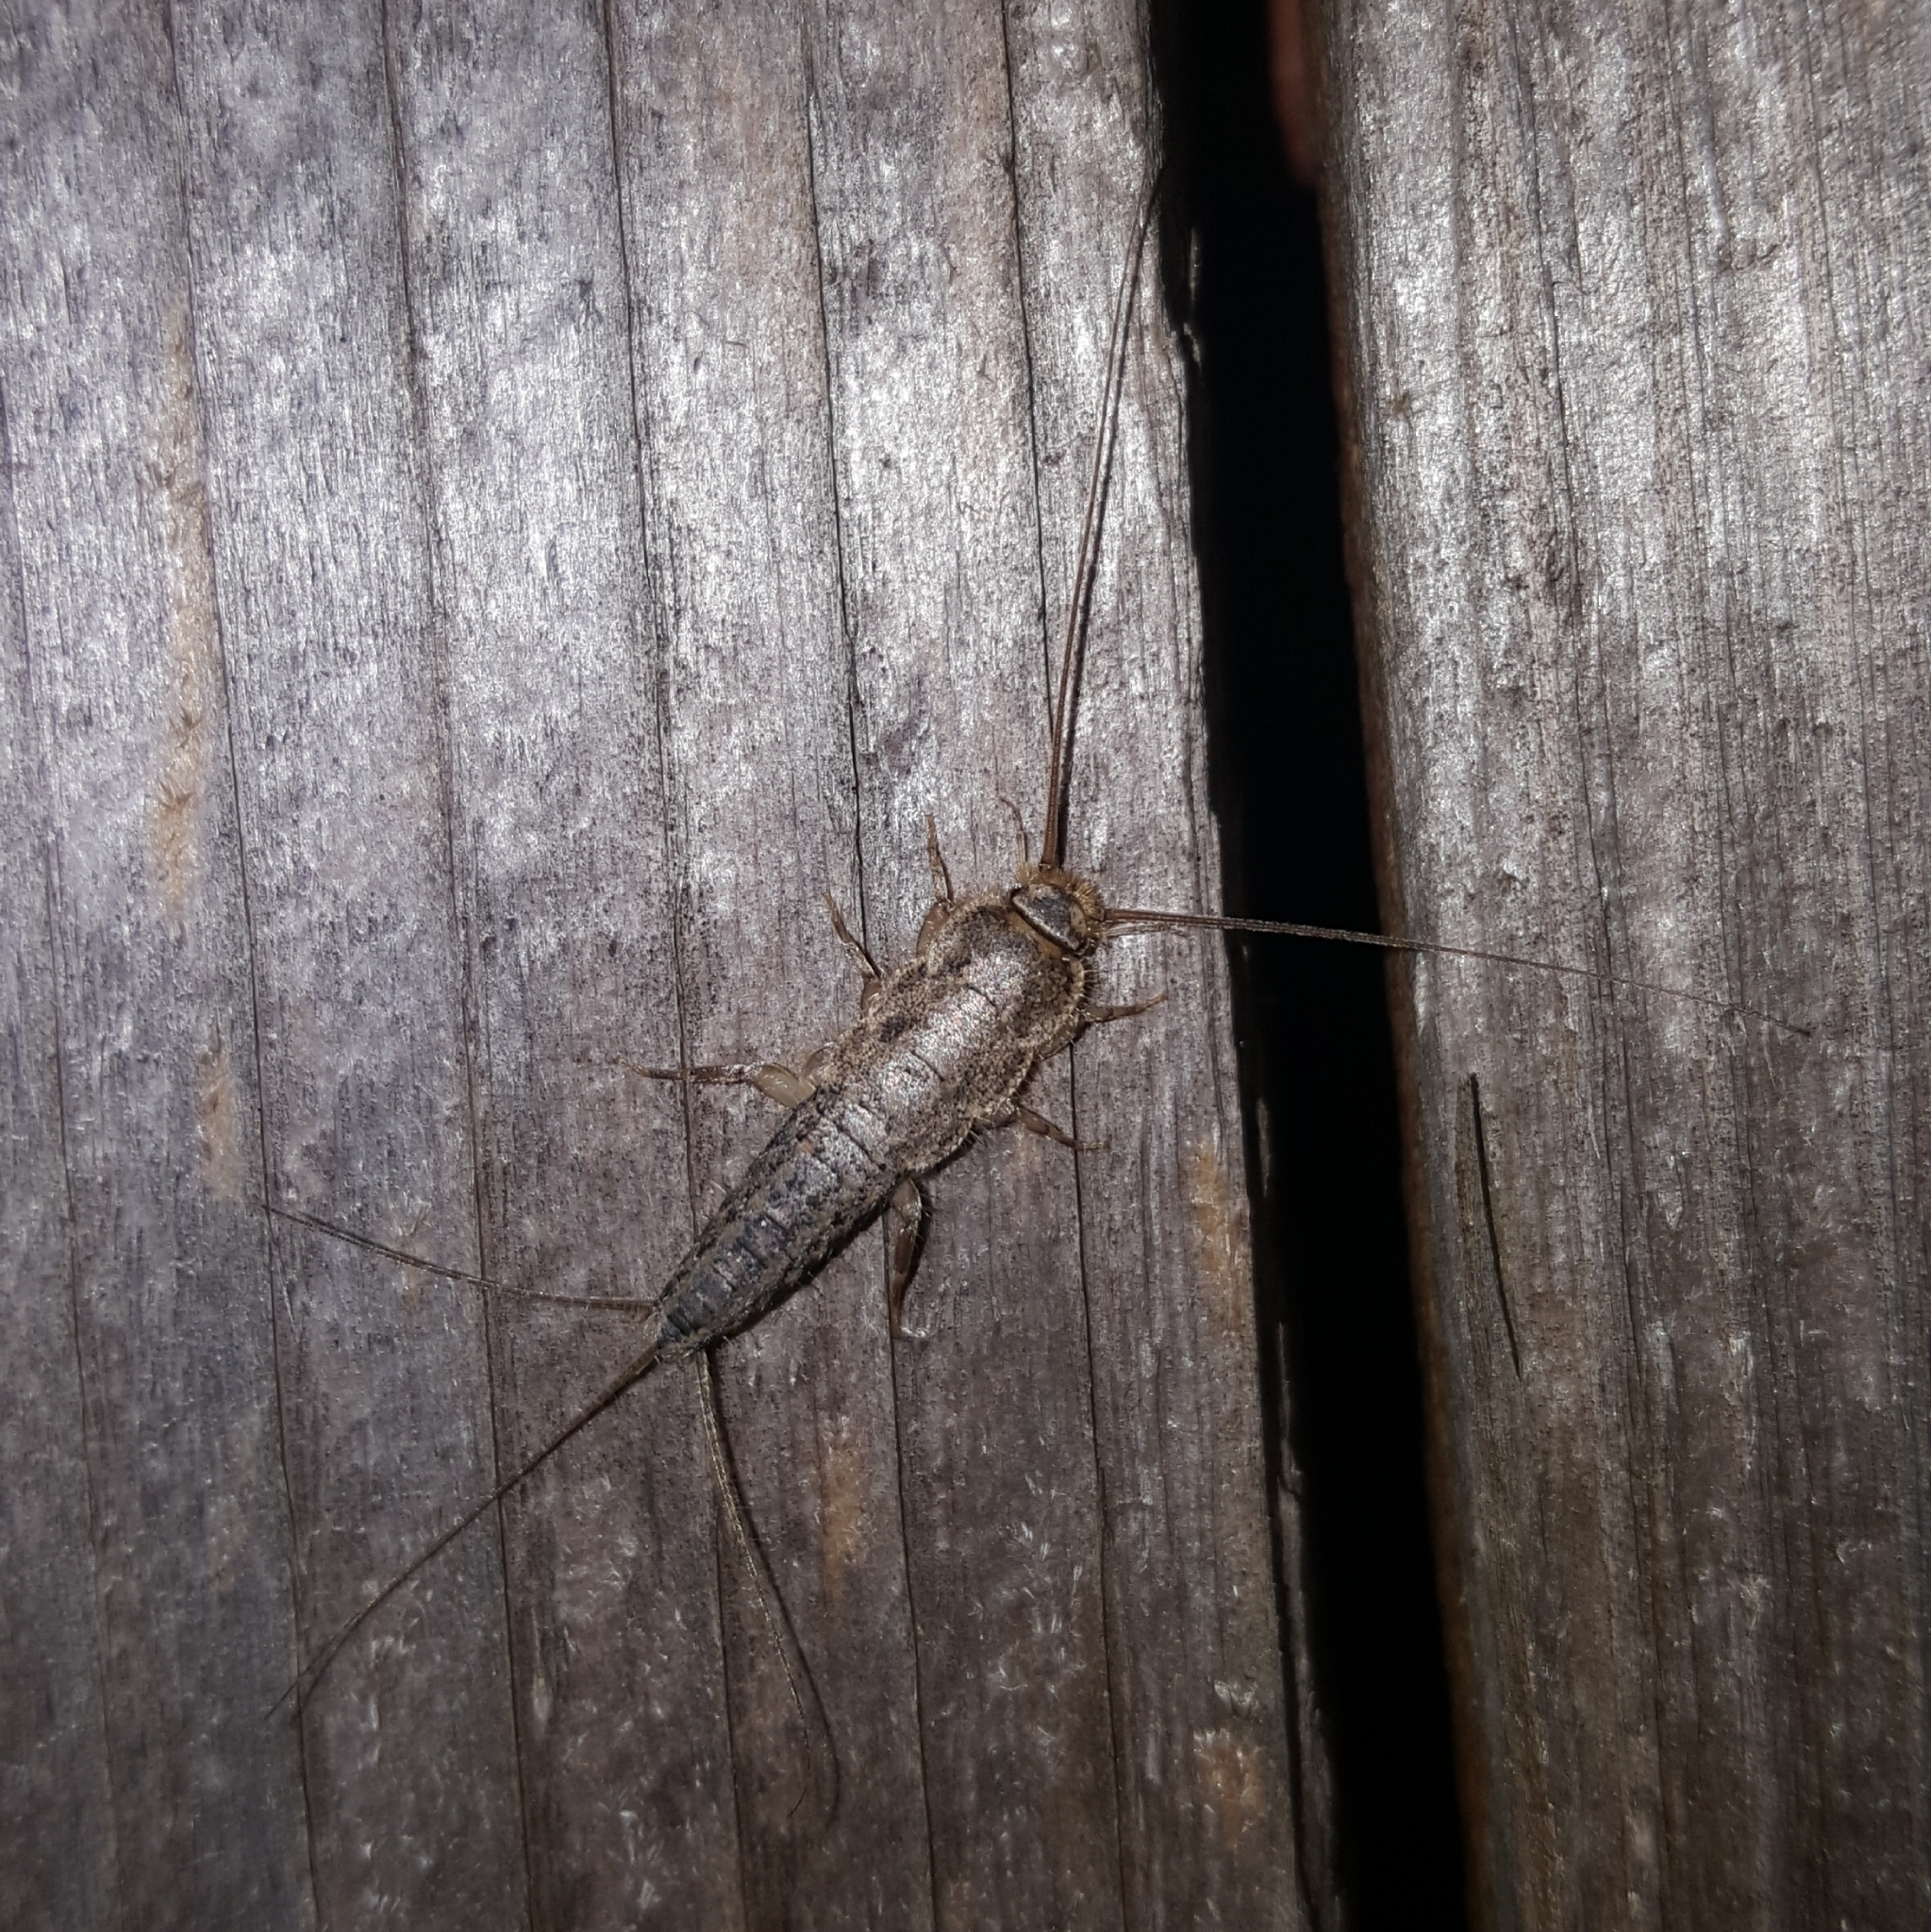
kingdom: Animalia
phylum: Arthropoda
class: Insecta
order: Zygentoma
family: Lepismatidae
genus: Ctenolepisma
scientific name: Ctenolepisma lineata
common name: Four-lined silverfish
